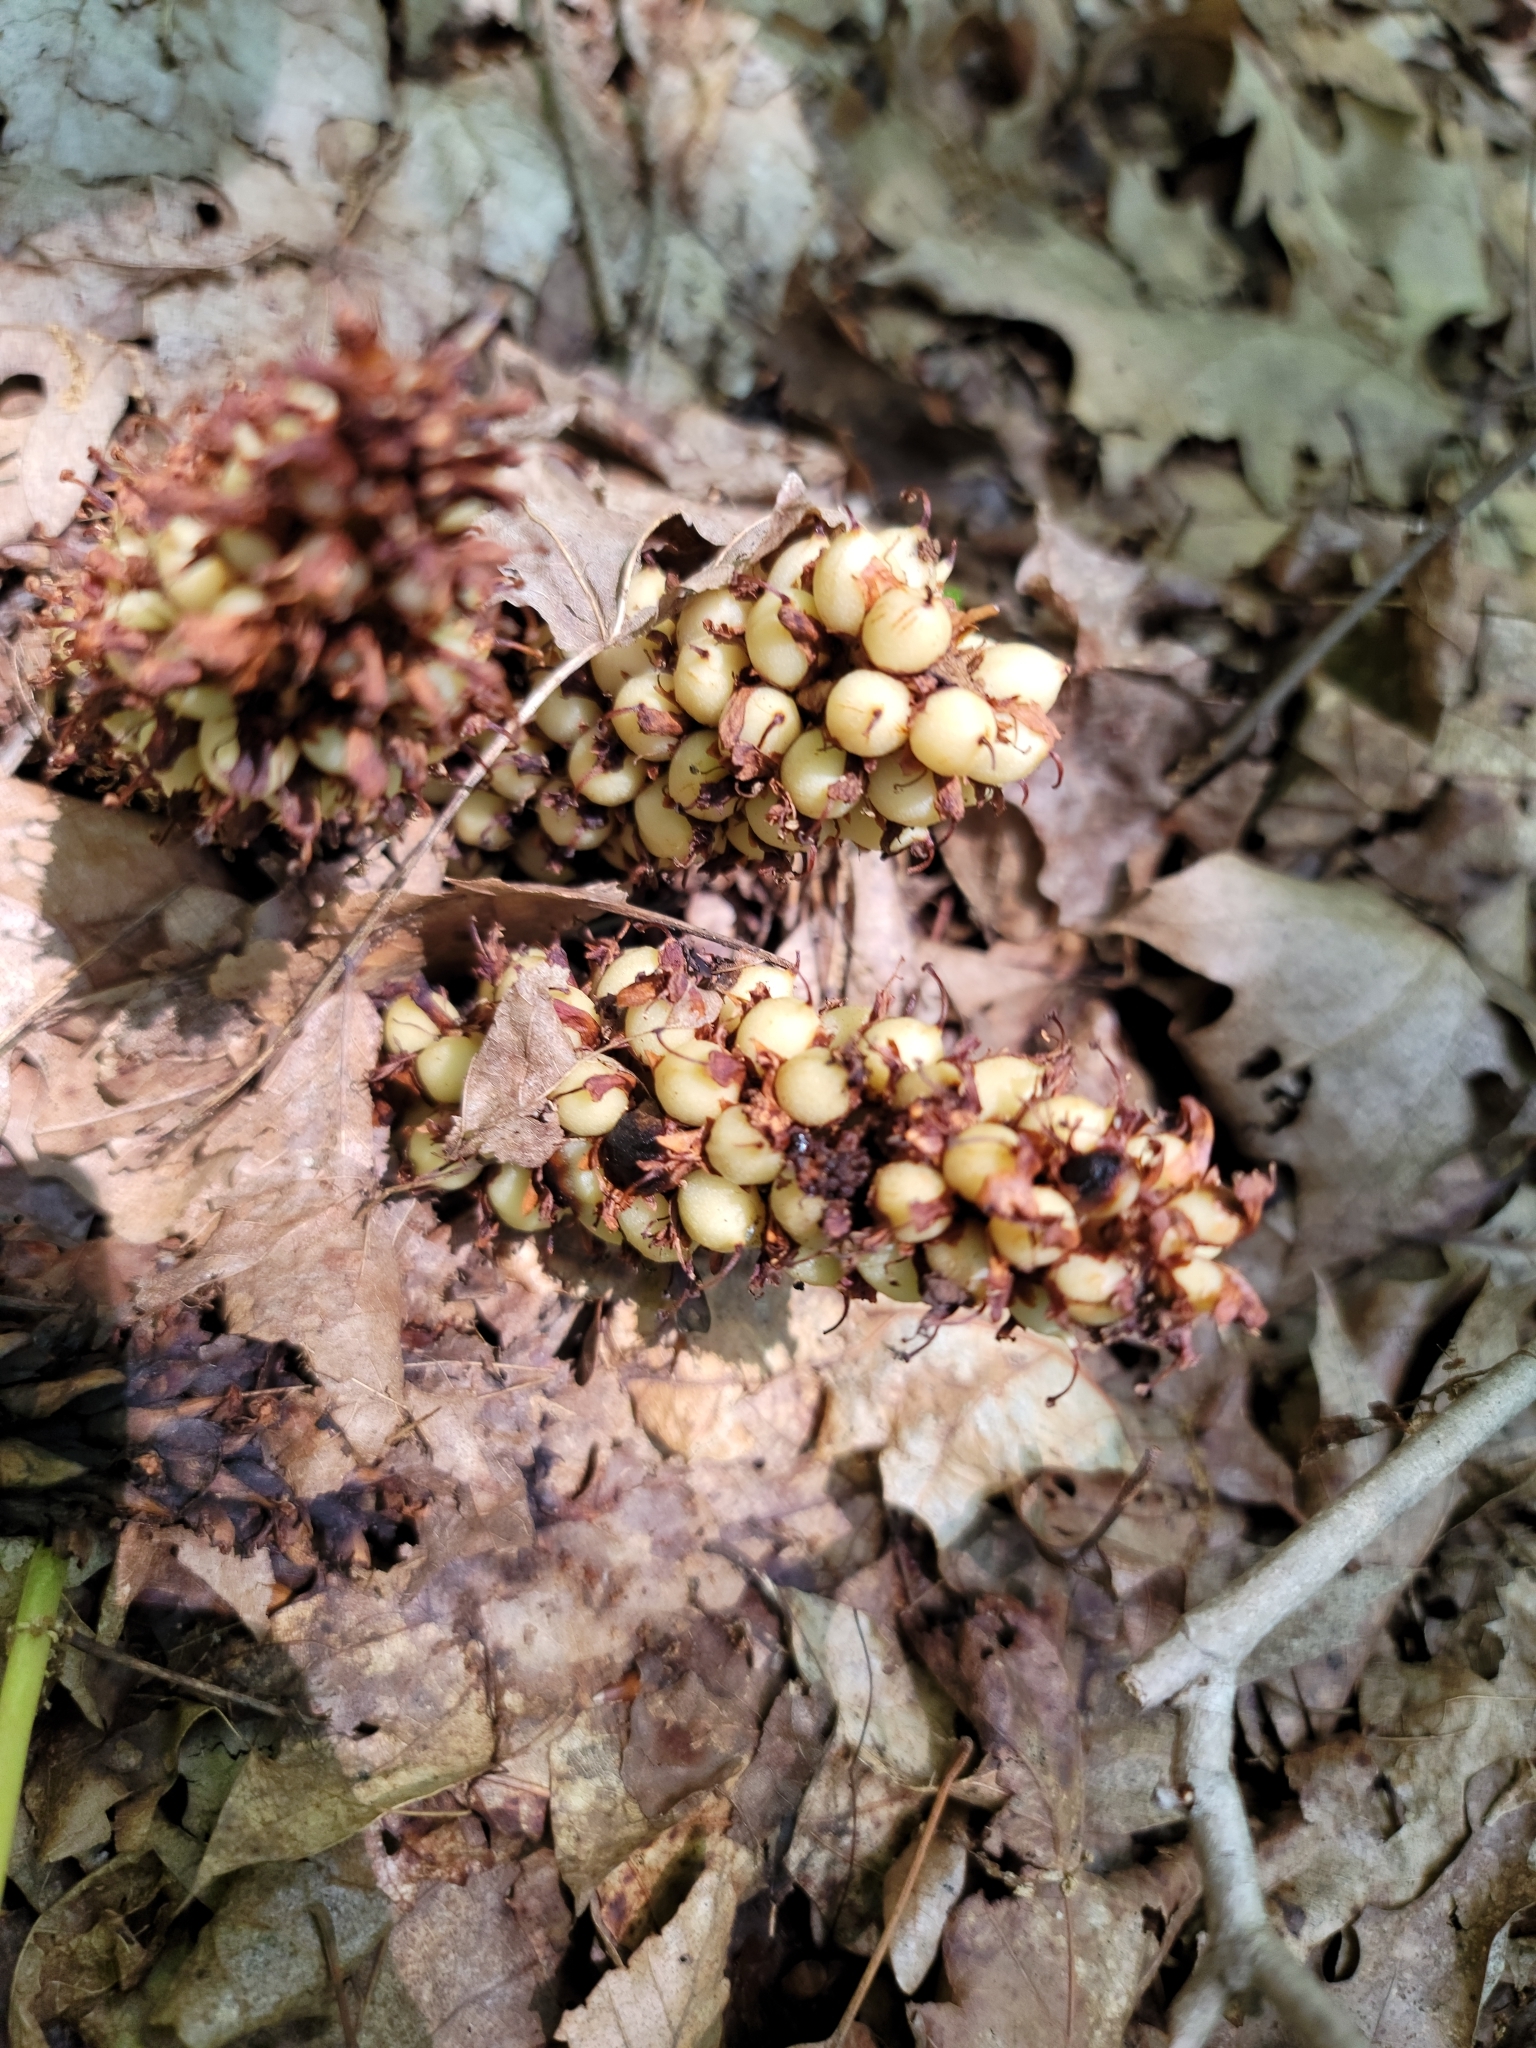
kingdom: Plantae
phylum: Tracheophyta
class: Magnoliopsida
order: Lamiales
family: Orobanchaceae
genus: Conopholis
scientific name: Conopholis americana
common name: American cancer-root
